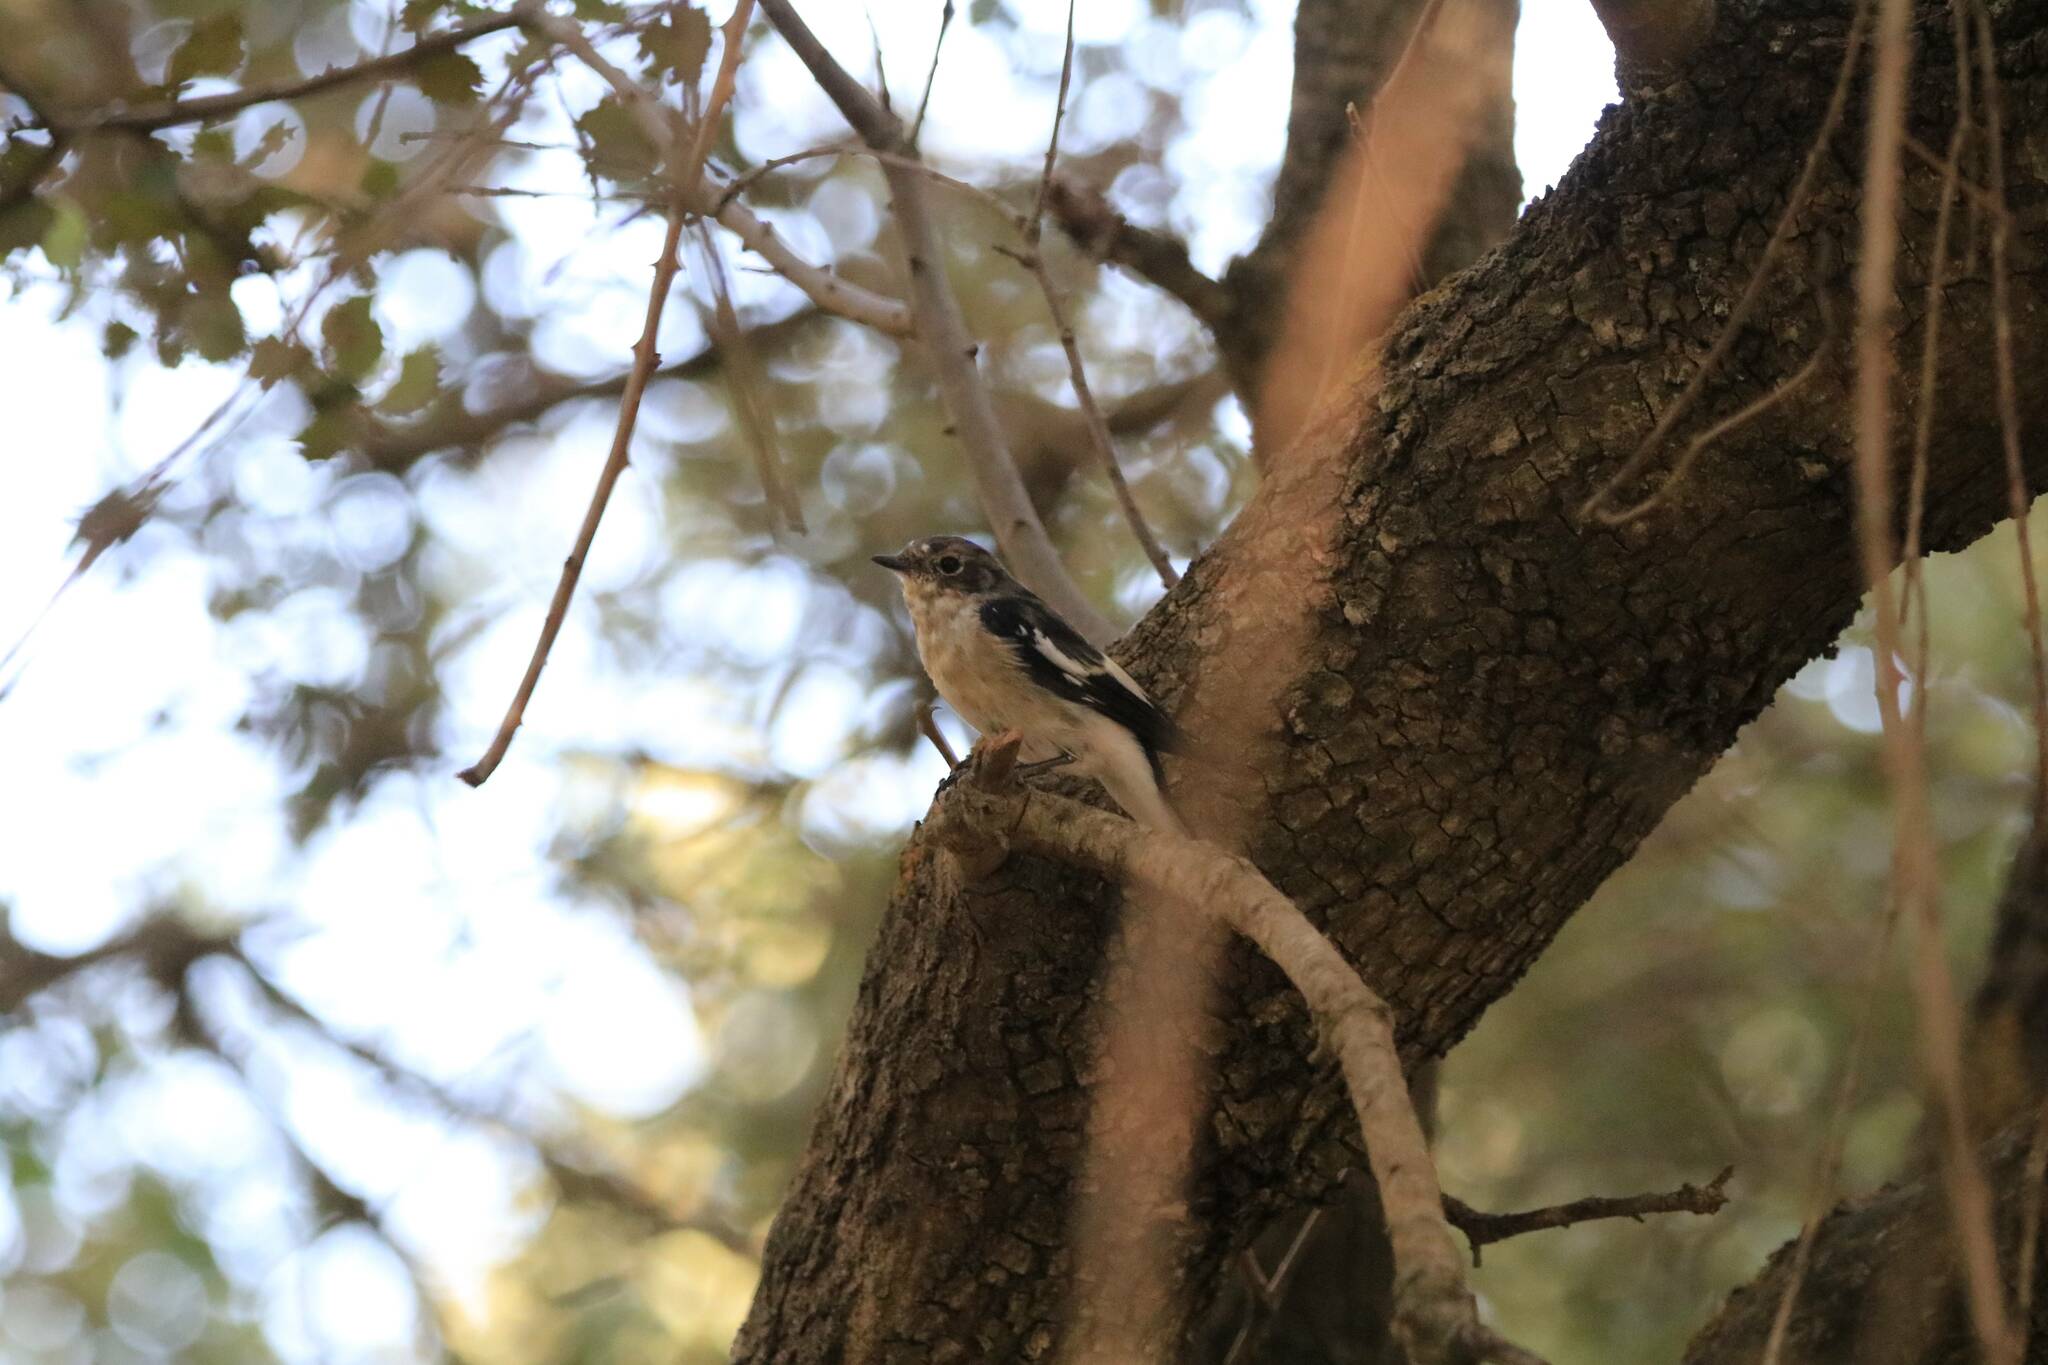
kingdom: Animalia
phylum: Chordata
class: Aves
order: Passeriformes
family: Muscicapidae
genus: Ficedula
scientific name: Ficedula speculigera
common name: Atlas pied flycatcher
